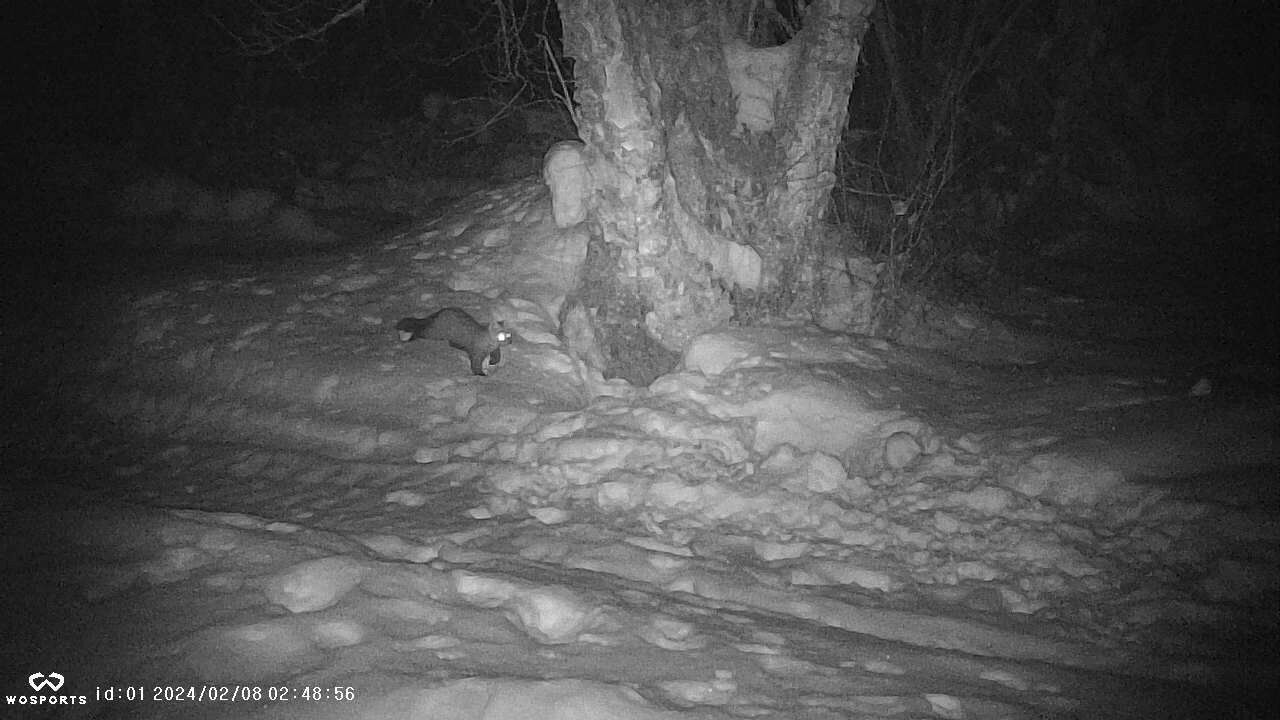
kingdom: Animalia
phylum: Chordata
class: Mammalia
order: Carnivora
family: Mustelidae
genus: Martes
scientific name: Martes americana
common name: American marten
